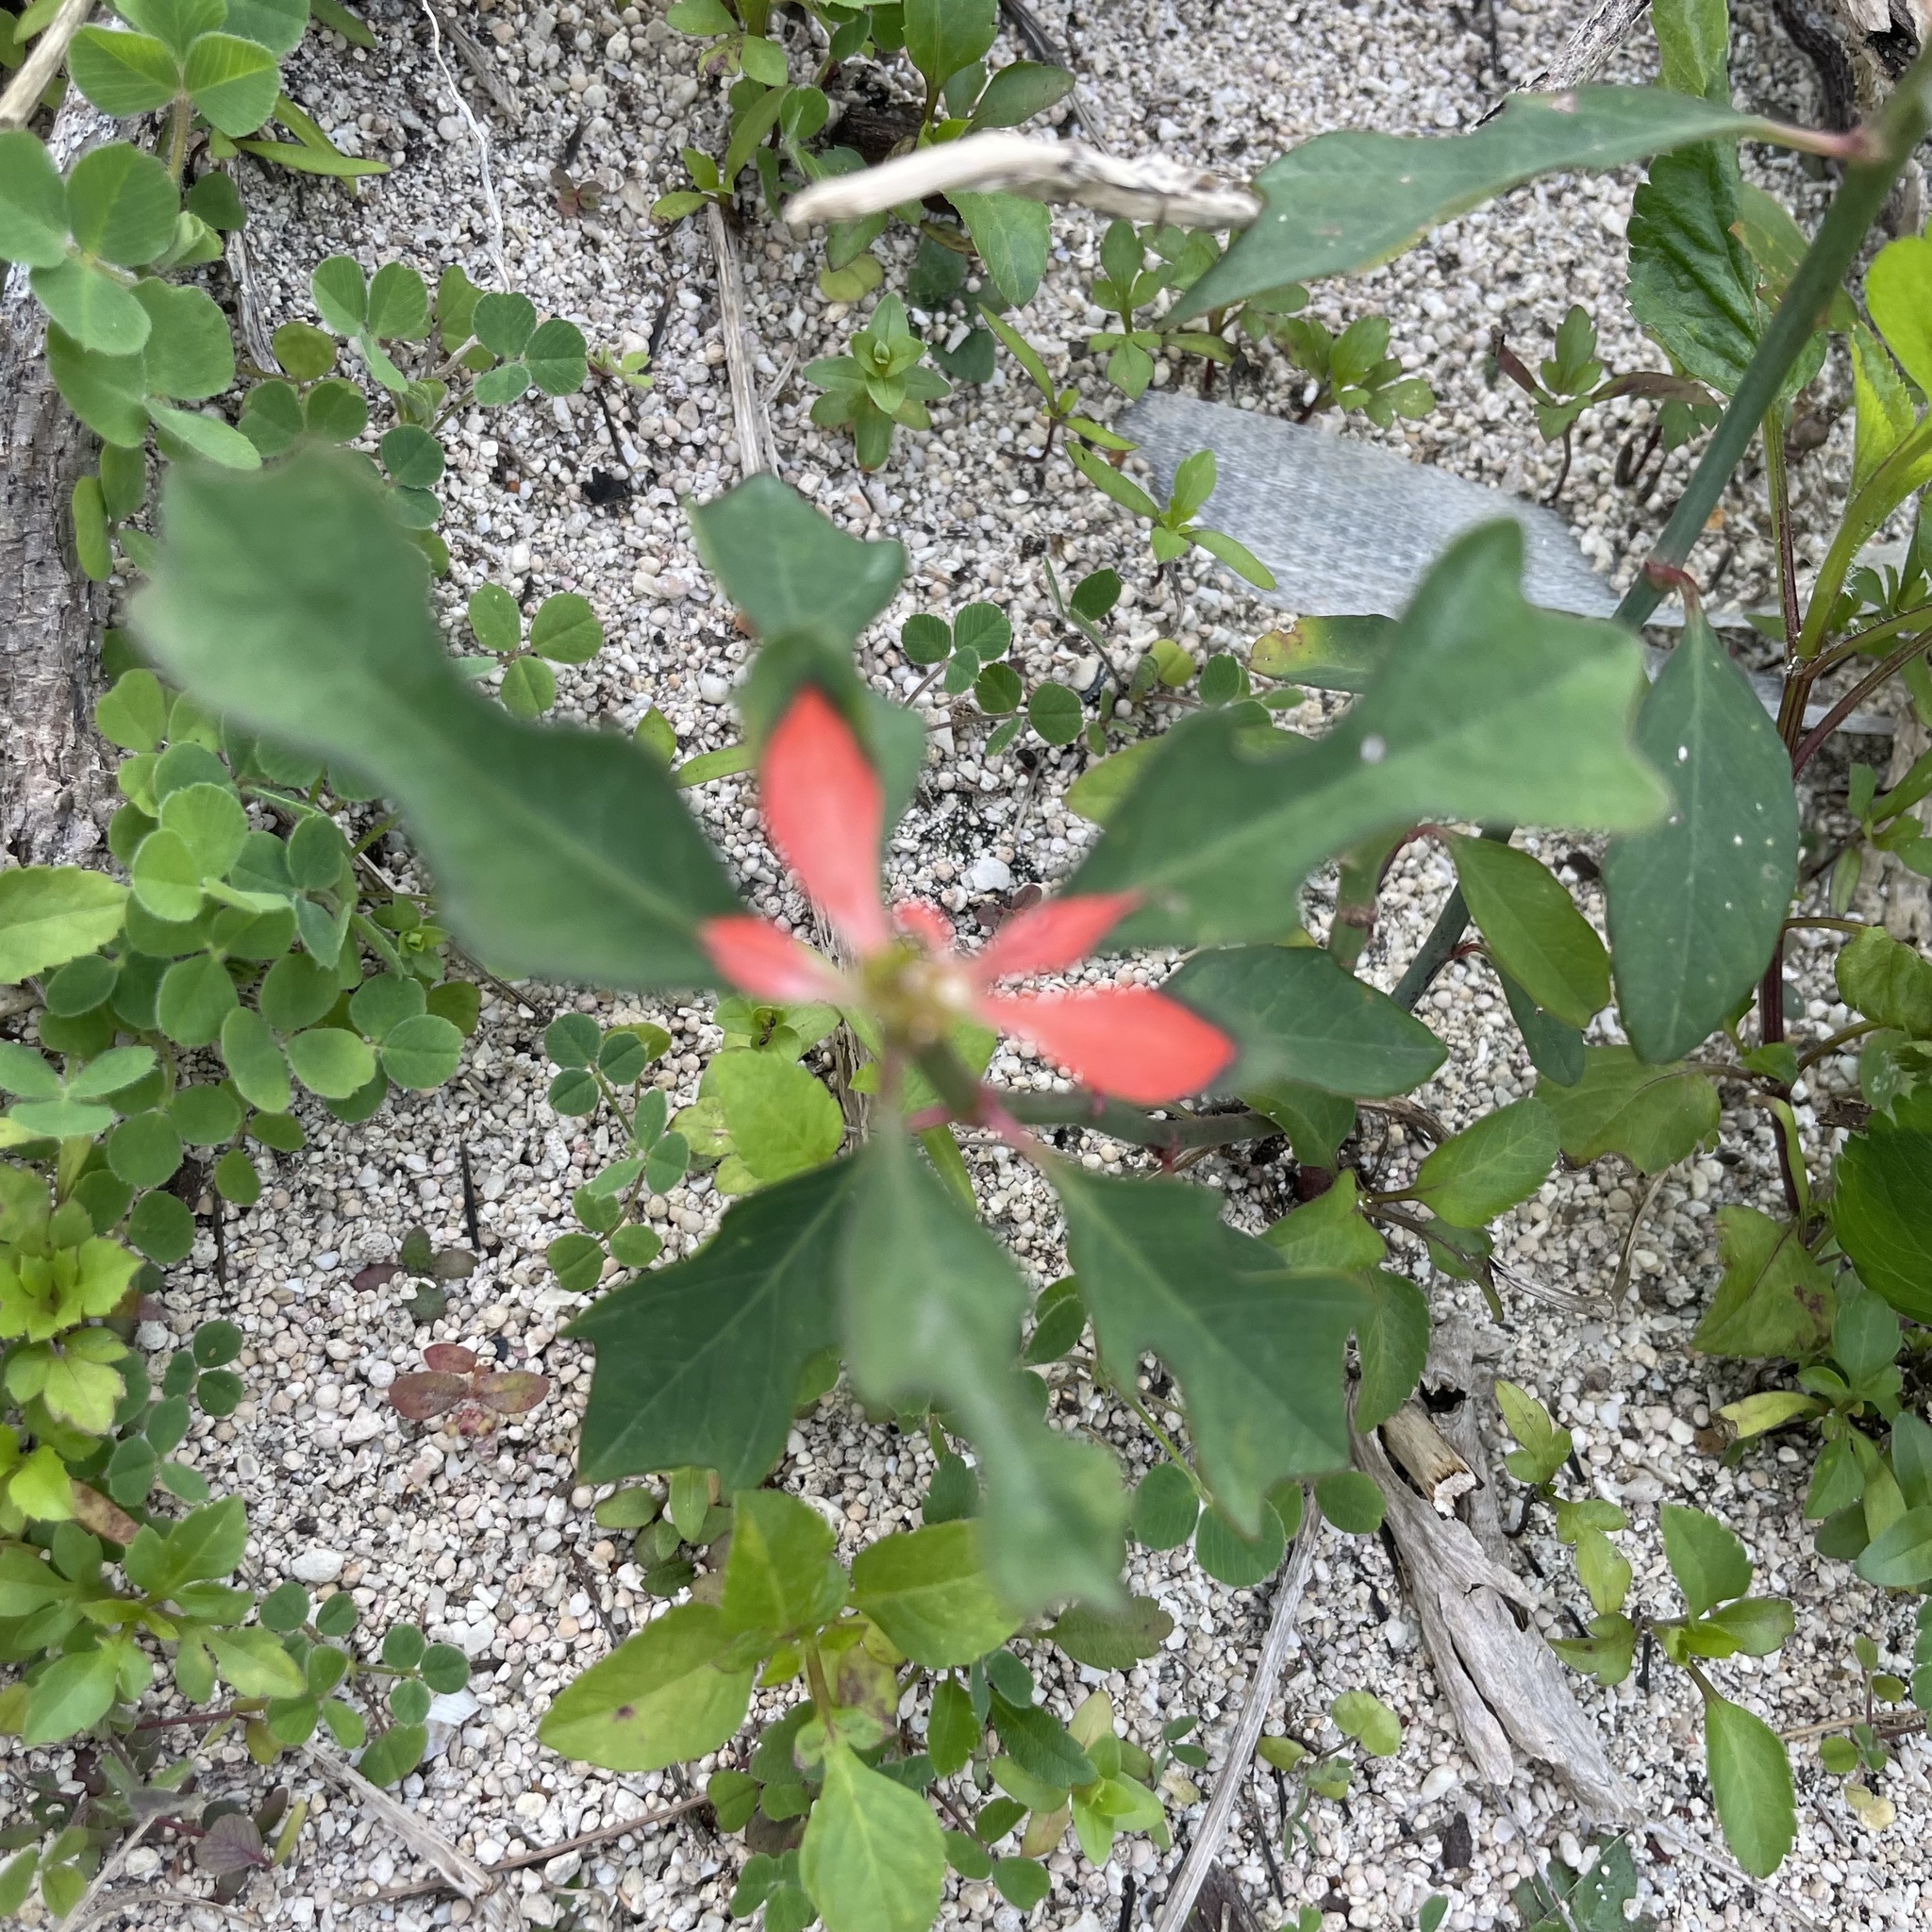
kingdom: Plantae
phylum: Tracheophyta
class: Magnoliopsida
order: Malpighiales
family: Euphorbiaceae
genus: Euphorbia
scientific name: Euphorbia heterophylla
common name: Mexican fireplant
